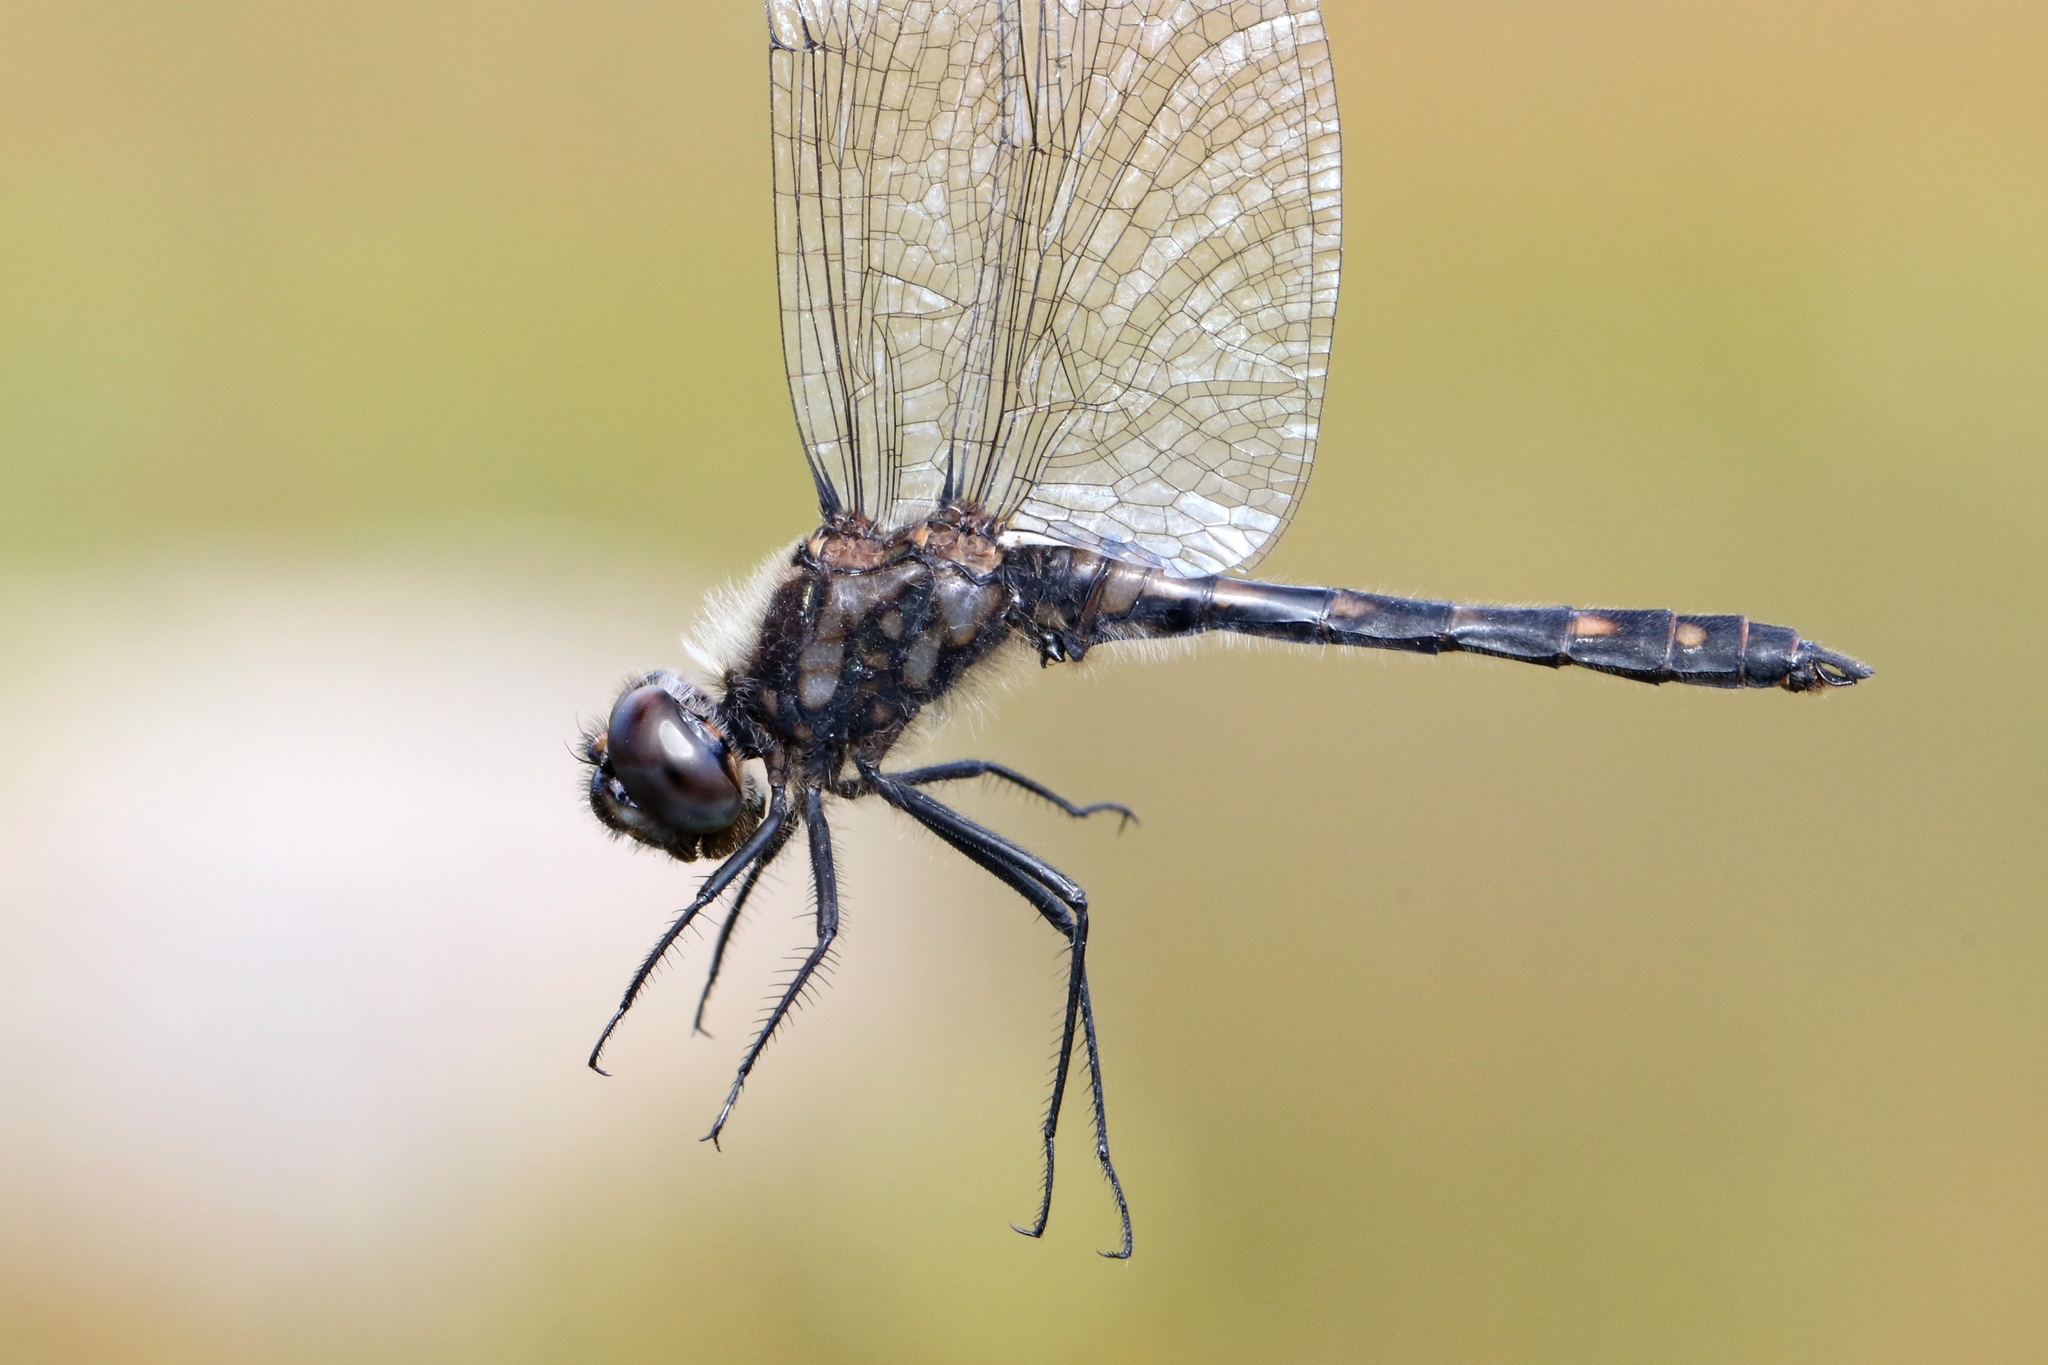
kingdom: Animalia
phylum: Arthropoda
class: Insecta
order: Odonata
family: Libellulidae
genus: Sympetrum
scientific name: Sympetrum danae
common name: Black darter
